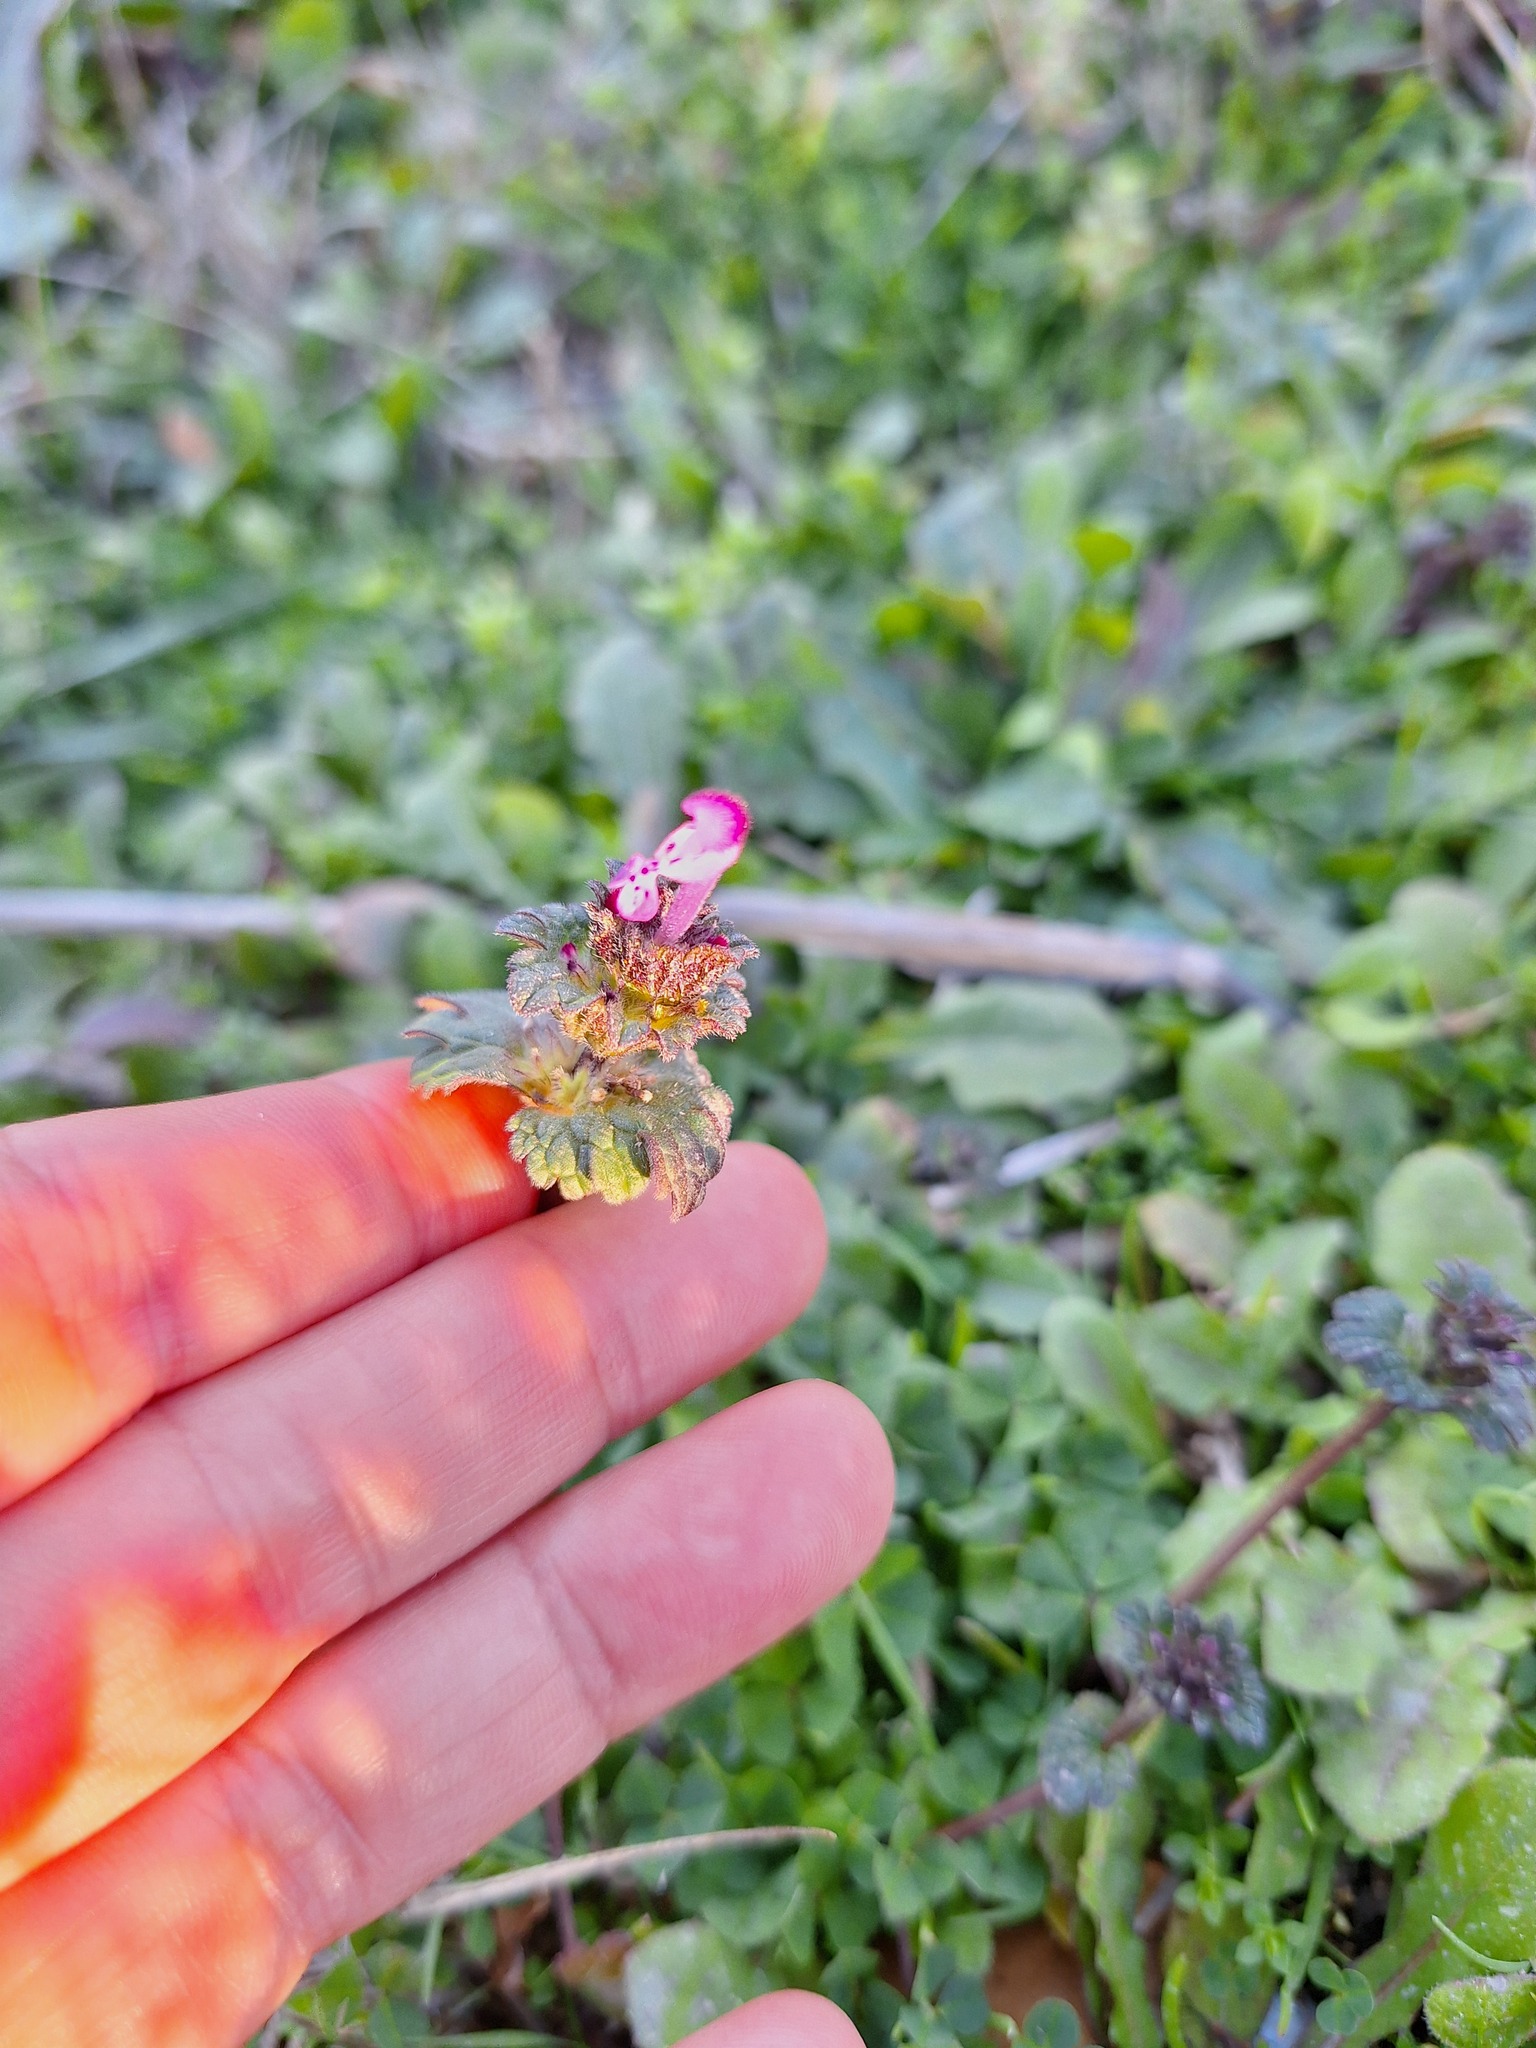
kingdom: Plantae
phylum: Tracheophyta
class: Magnoliopsida
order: Lamiales
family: Lamiaceae
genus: Lamium
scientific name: Lamium amplexicaule
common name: Henbit dead-nettle
